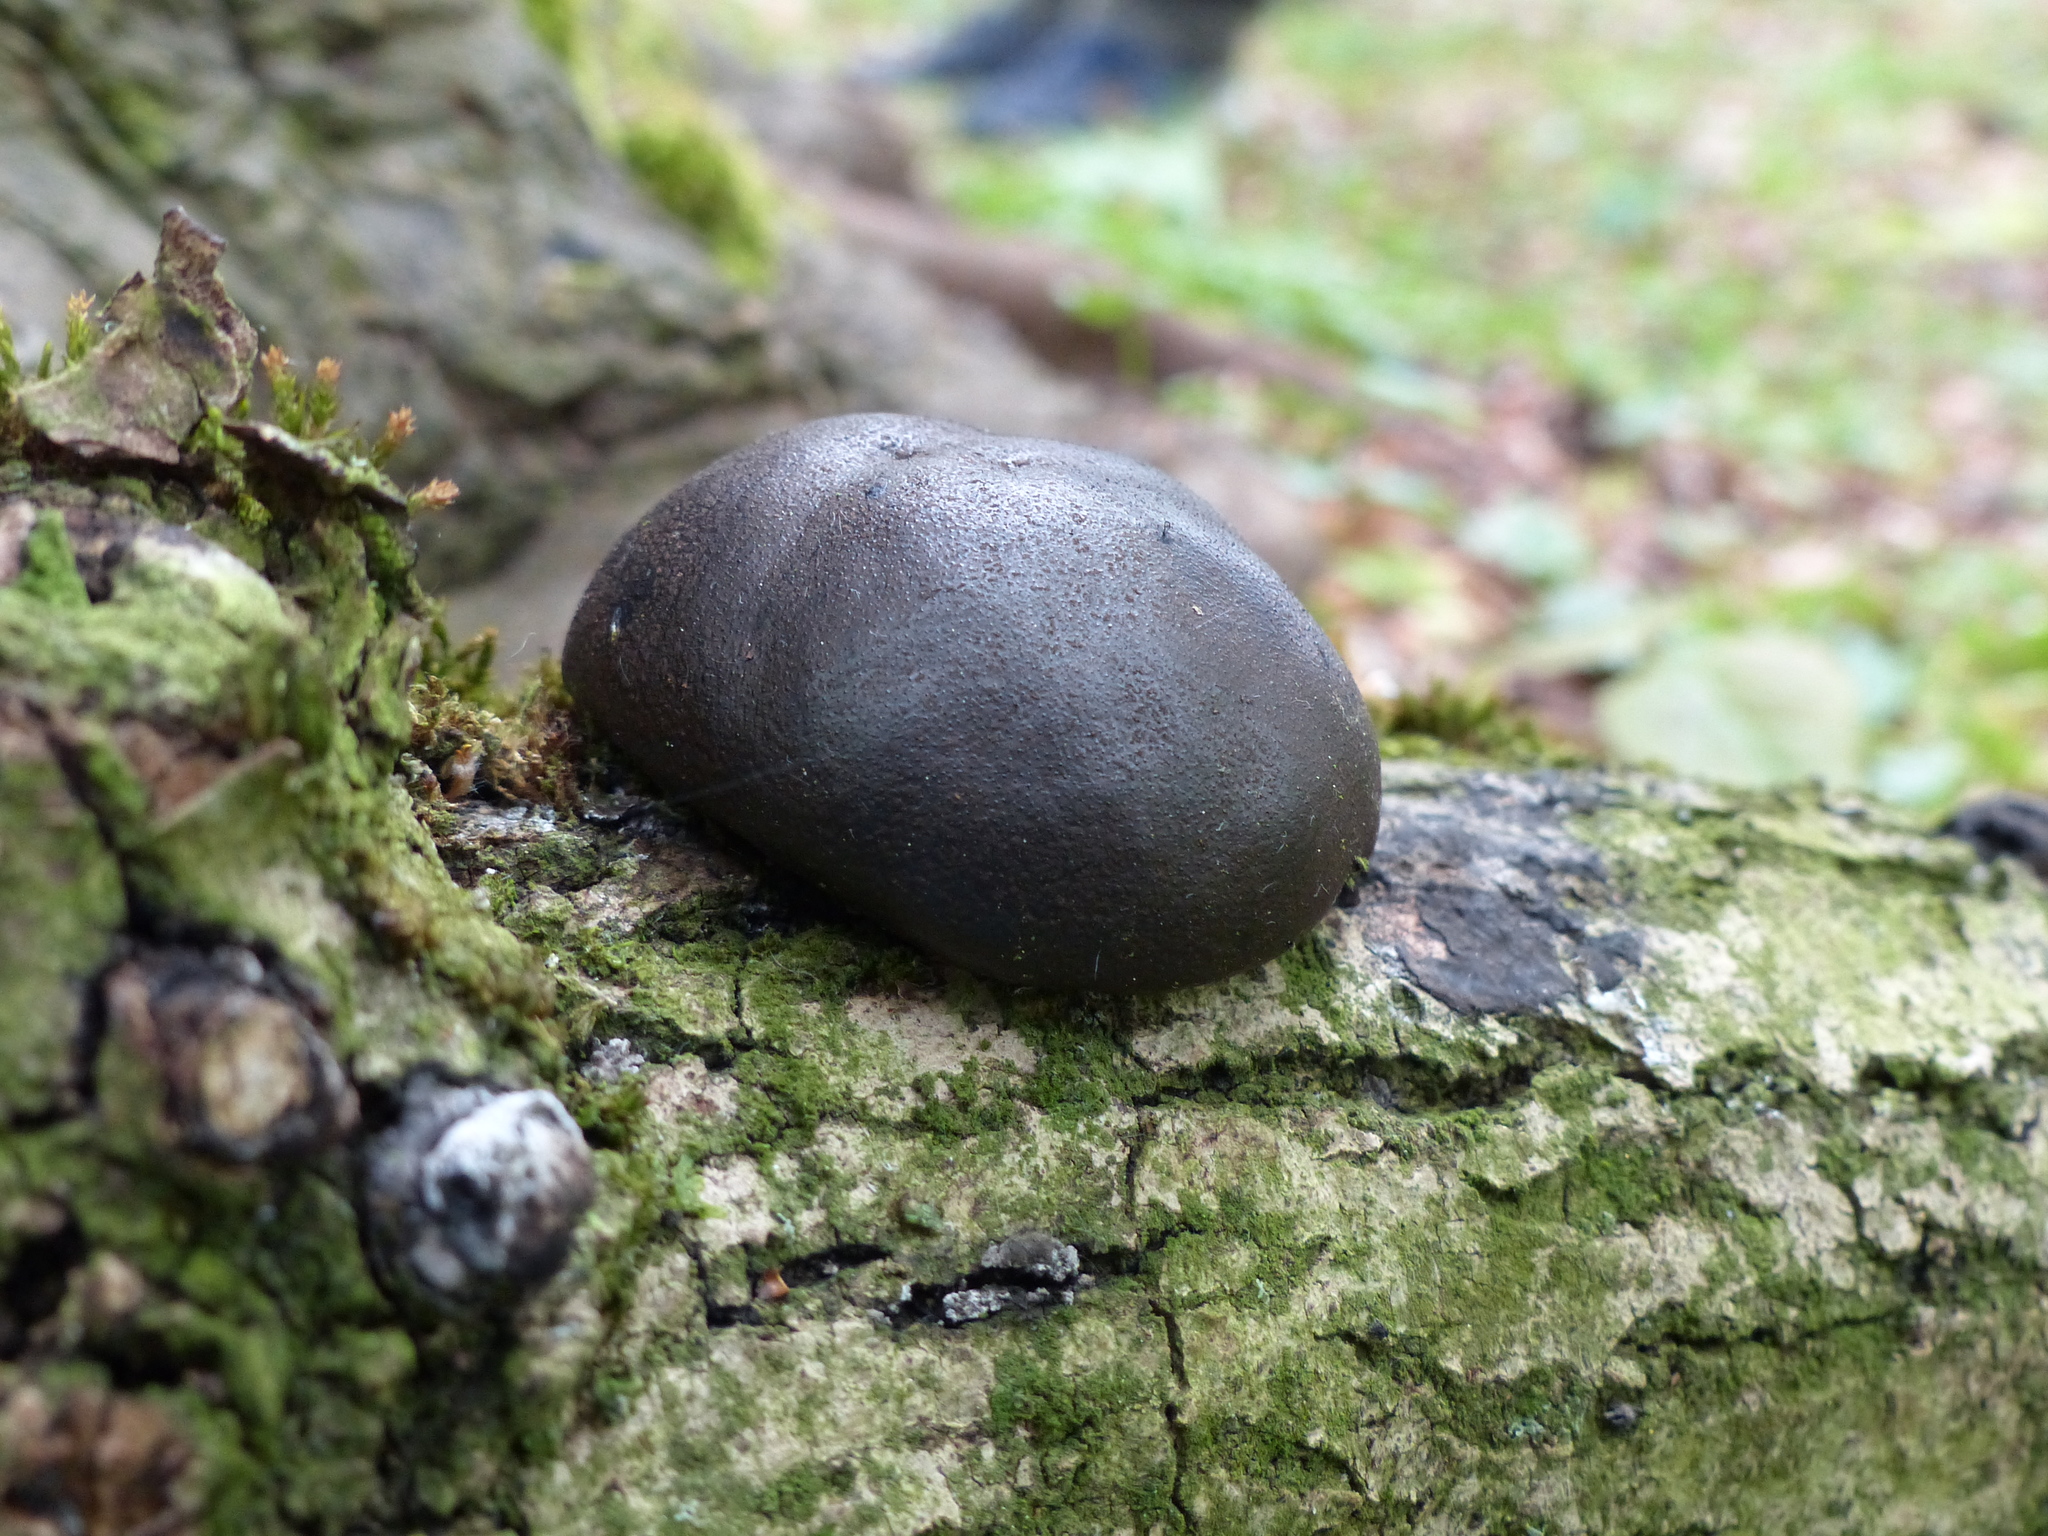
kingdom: Fungi
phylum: Ascomycota
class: Sordariomycetes
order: Xylariales
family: Hypoxylaceae
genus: Daldinia
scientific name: Daldinia concentrica
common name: Cramp balls
